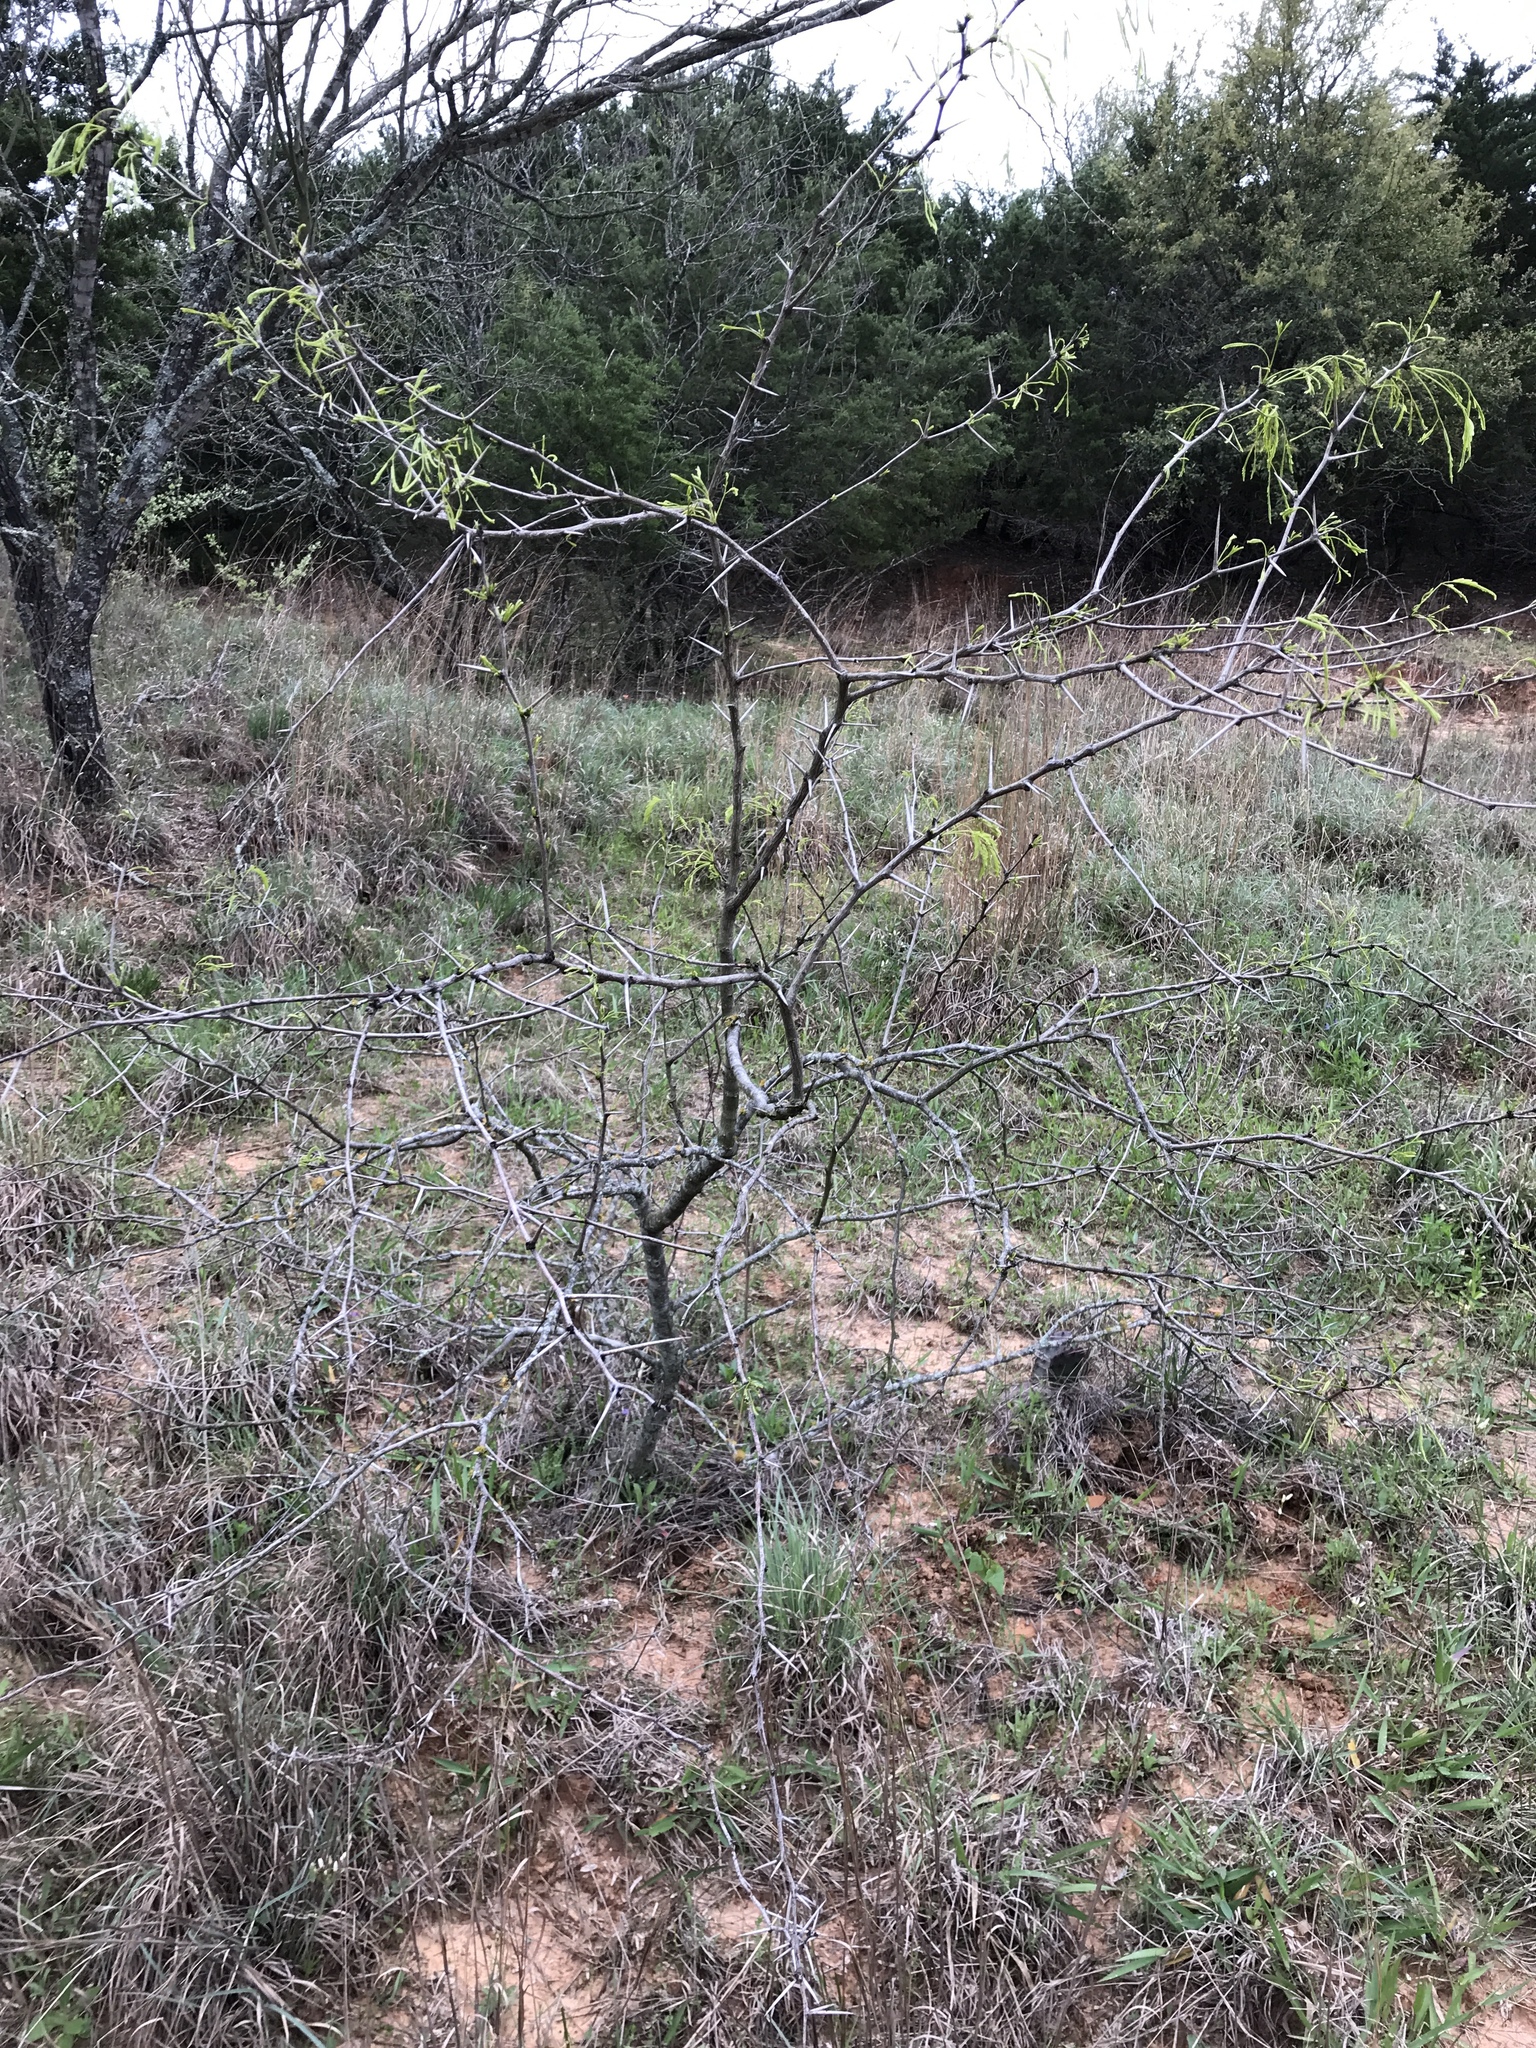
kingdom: Plantae
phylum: Tracheophyta
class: Magnoliopsida
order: Fabales
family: Fabaceae
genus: Prosopis
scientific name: Prosopis glandulosa
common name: Honey mesquite
